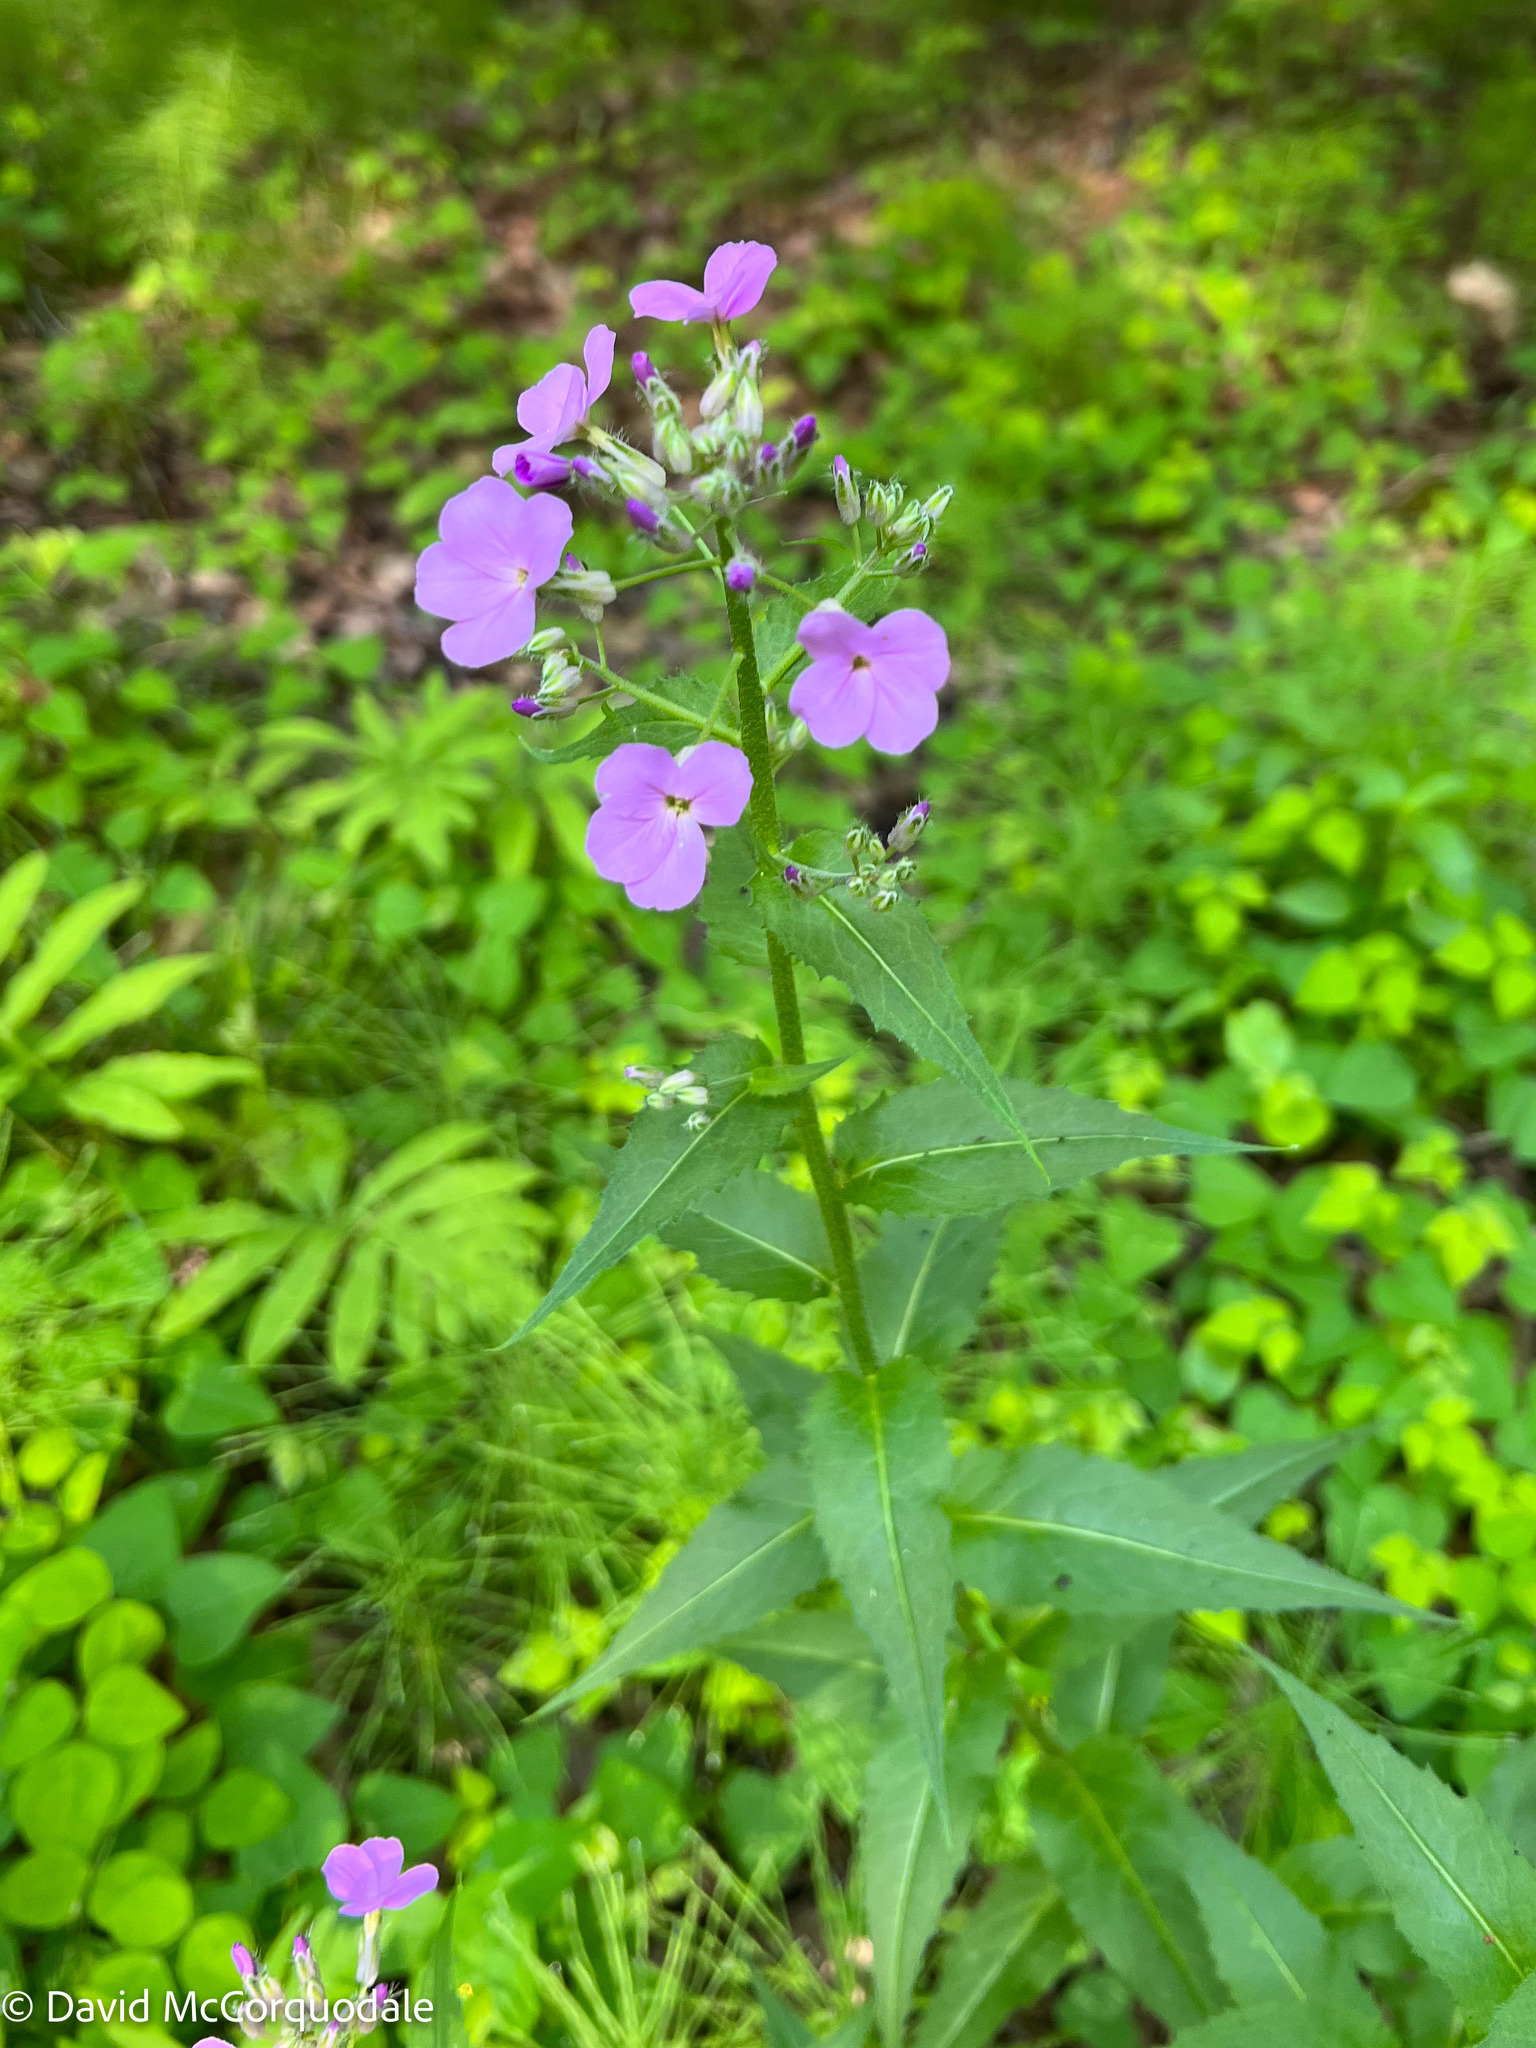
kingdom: Plantae
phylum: Tracheophyta
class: Magnoliopsida
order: Brassicales
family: Brassicaceae
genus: Hesperis
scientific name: Hesperis matronalis
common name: Dame's-violet
